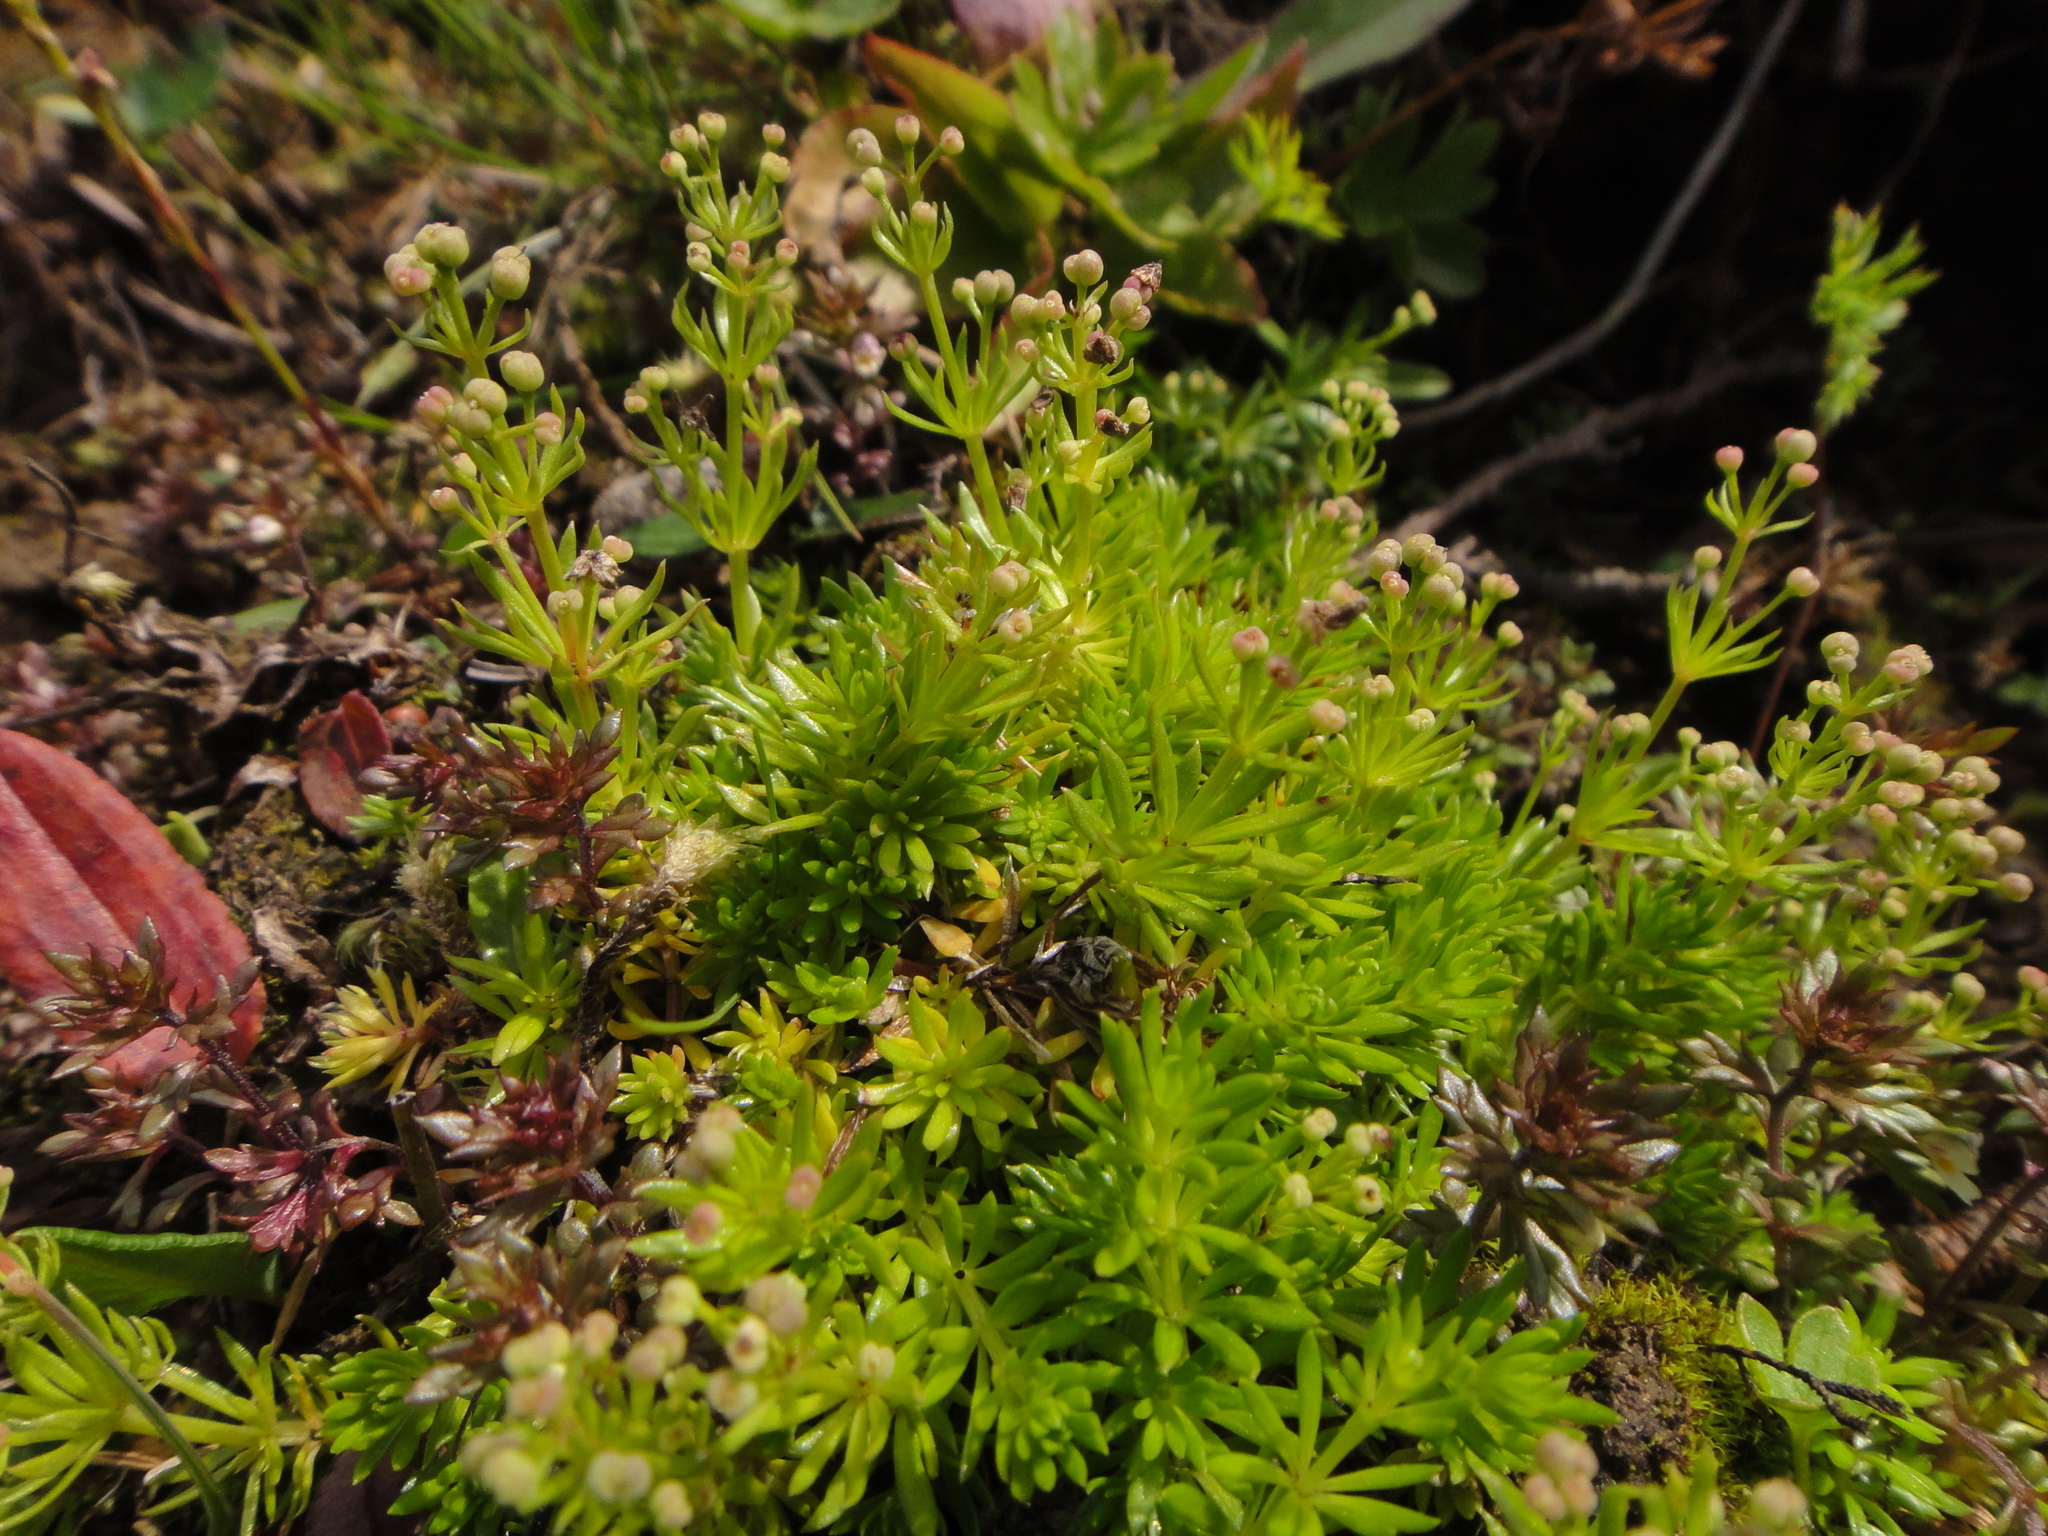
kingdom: Plantae
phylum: Tracheophyta
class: Magnoliopsida
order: Gentianales
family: Rubiaceae
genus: Galium
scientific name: Galium noricum
